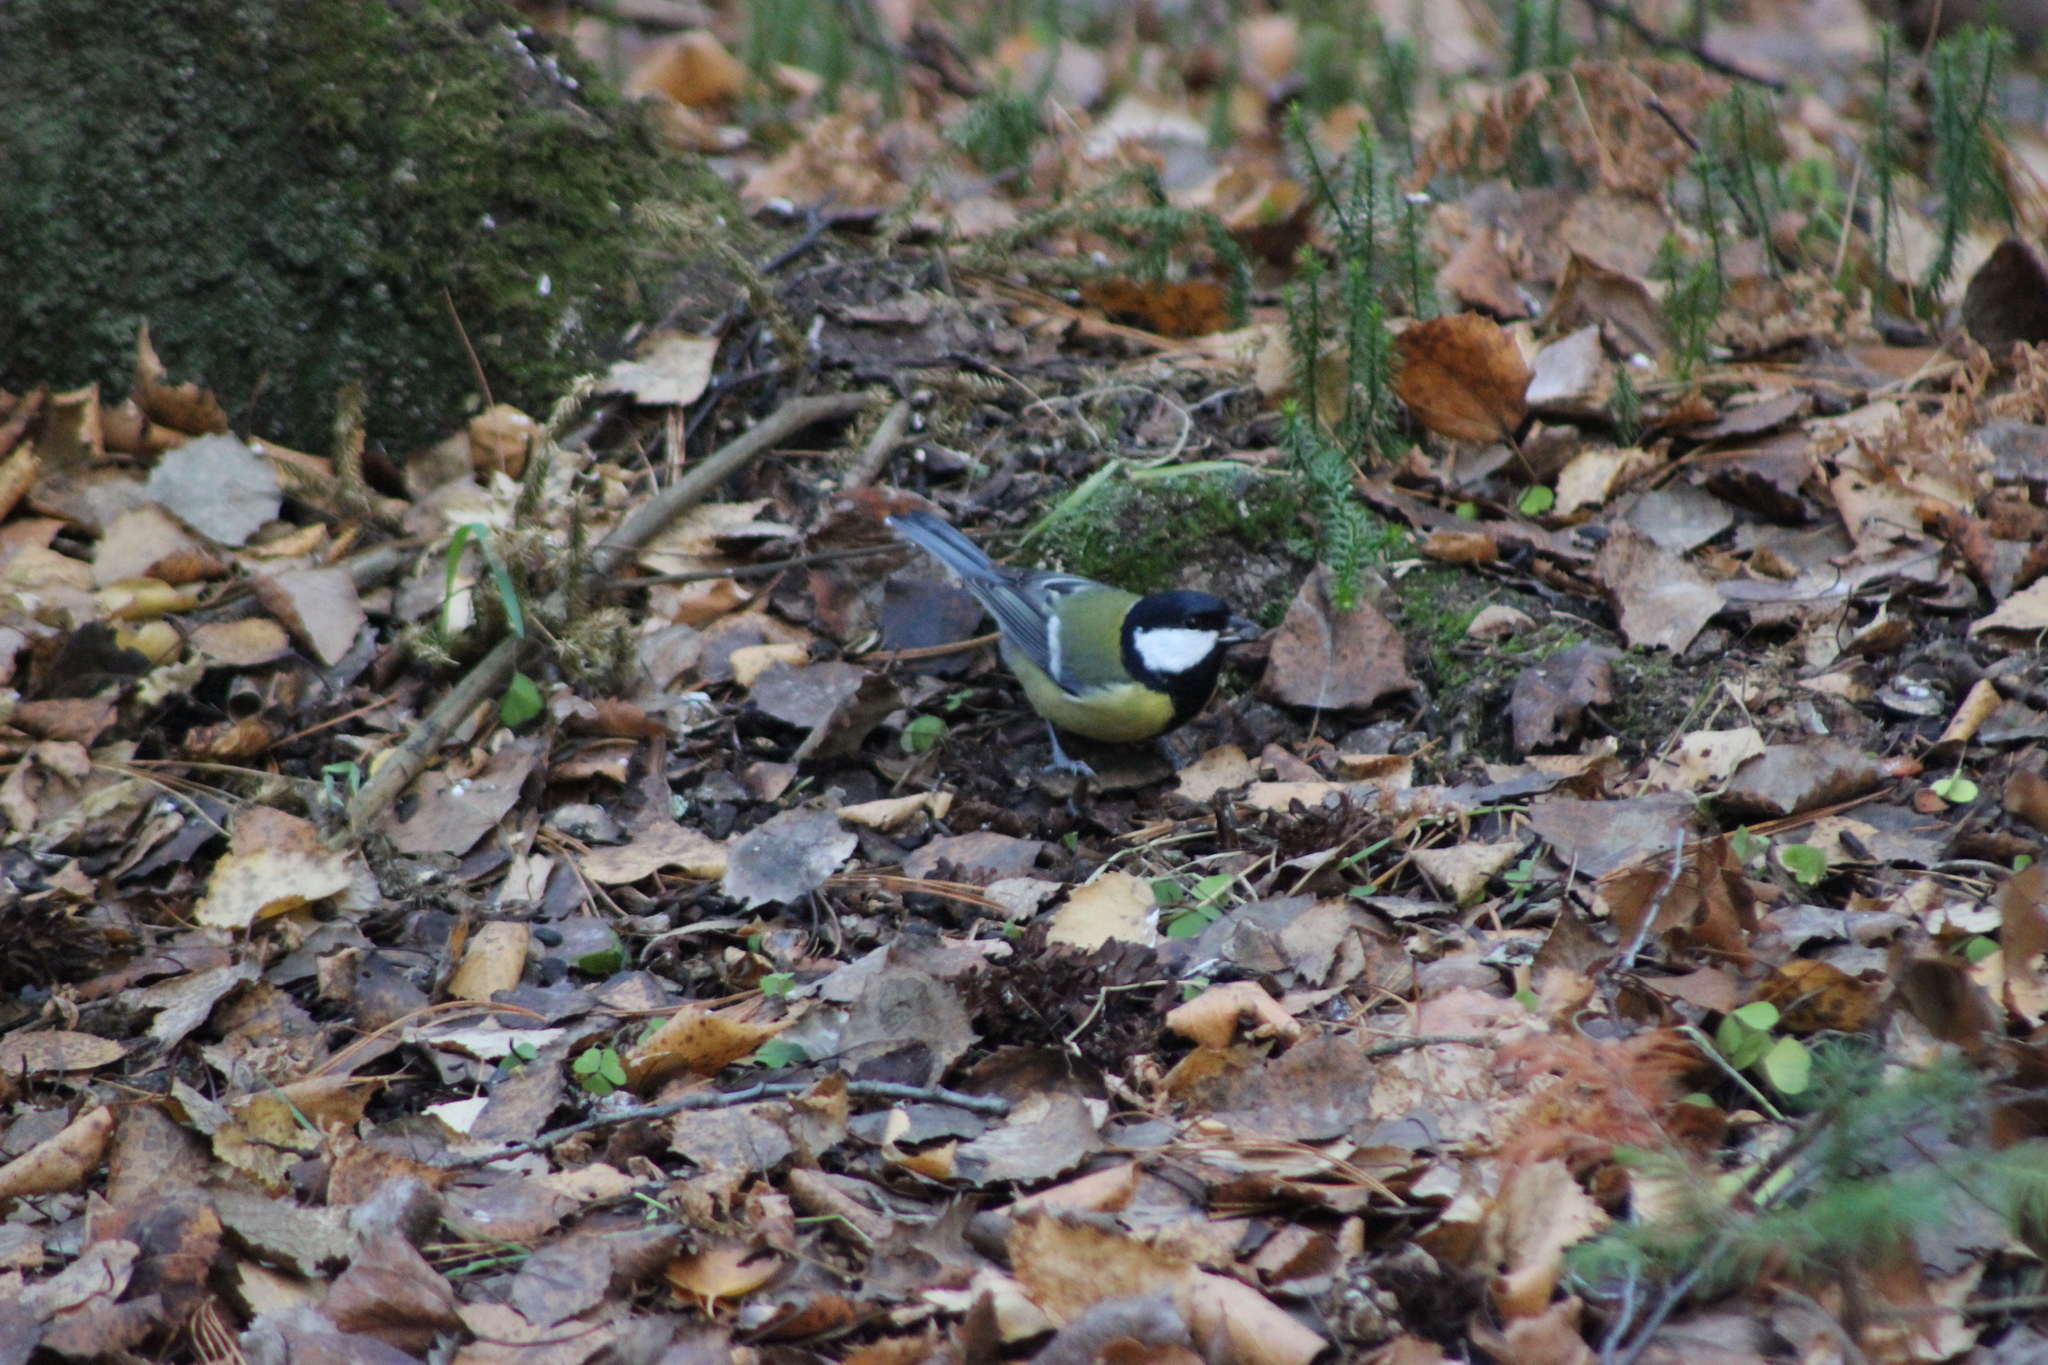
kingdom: Animalia
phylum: Chordata
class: Aves
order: Passeriformes
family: Paridae
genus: Parus
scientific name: Parus major
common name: Great tit
